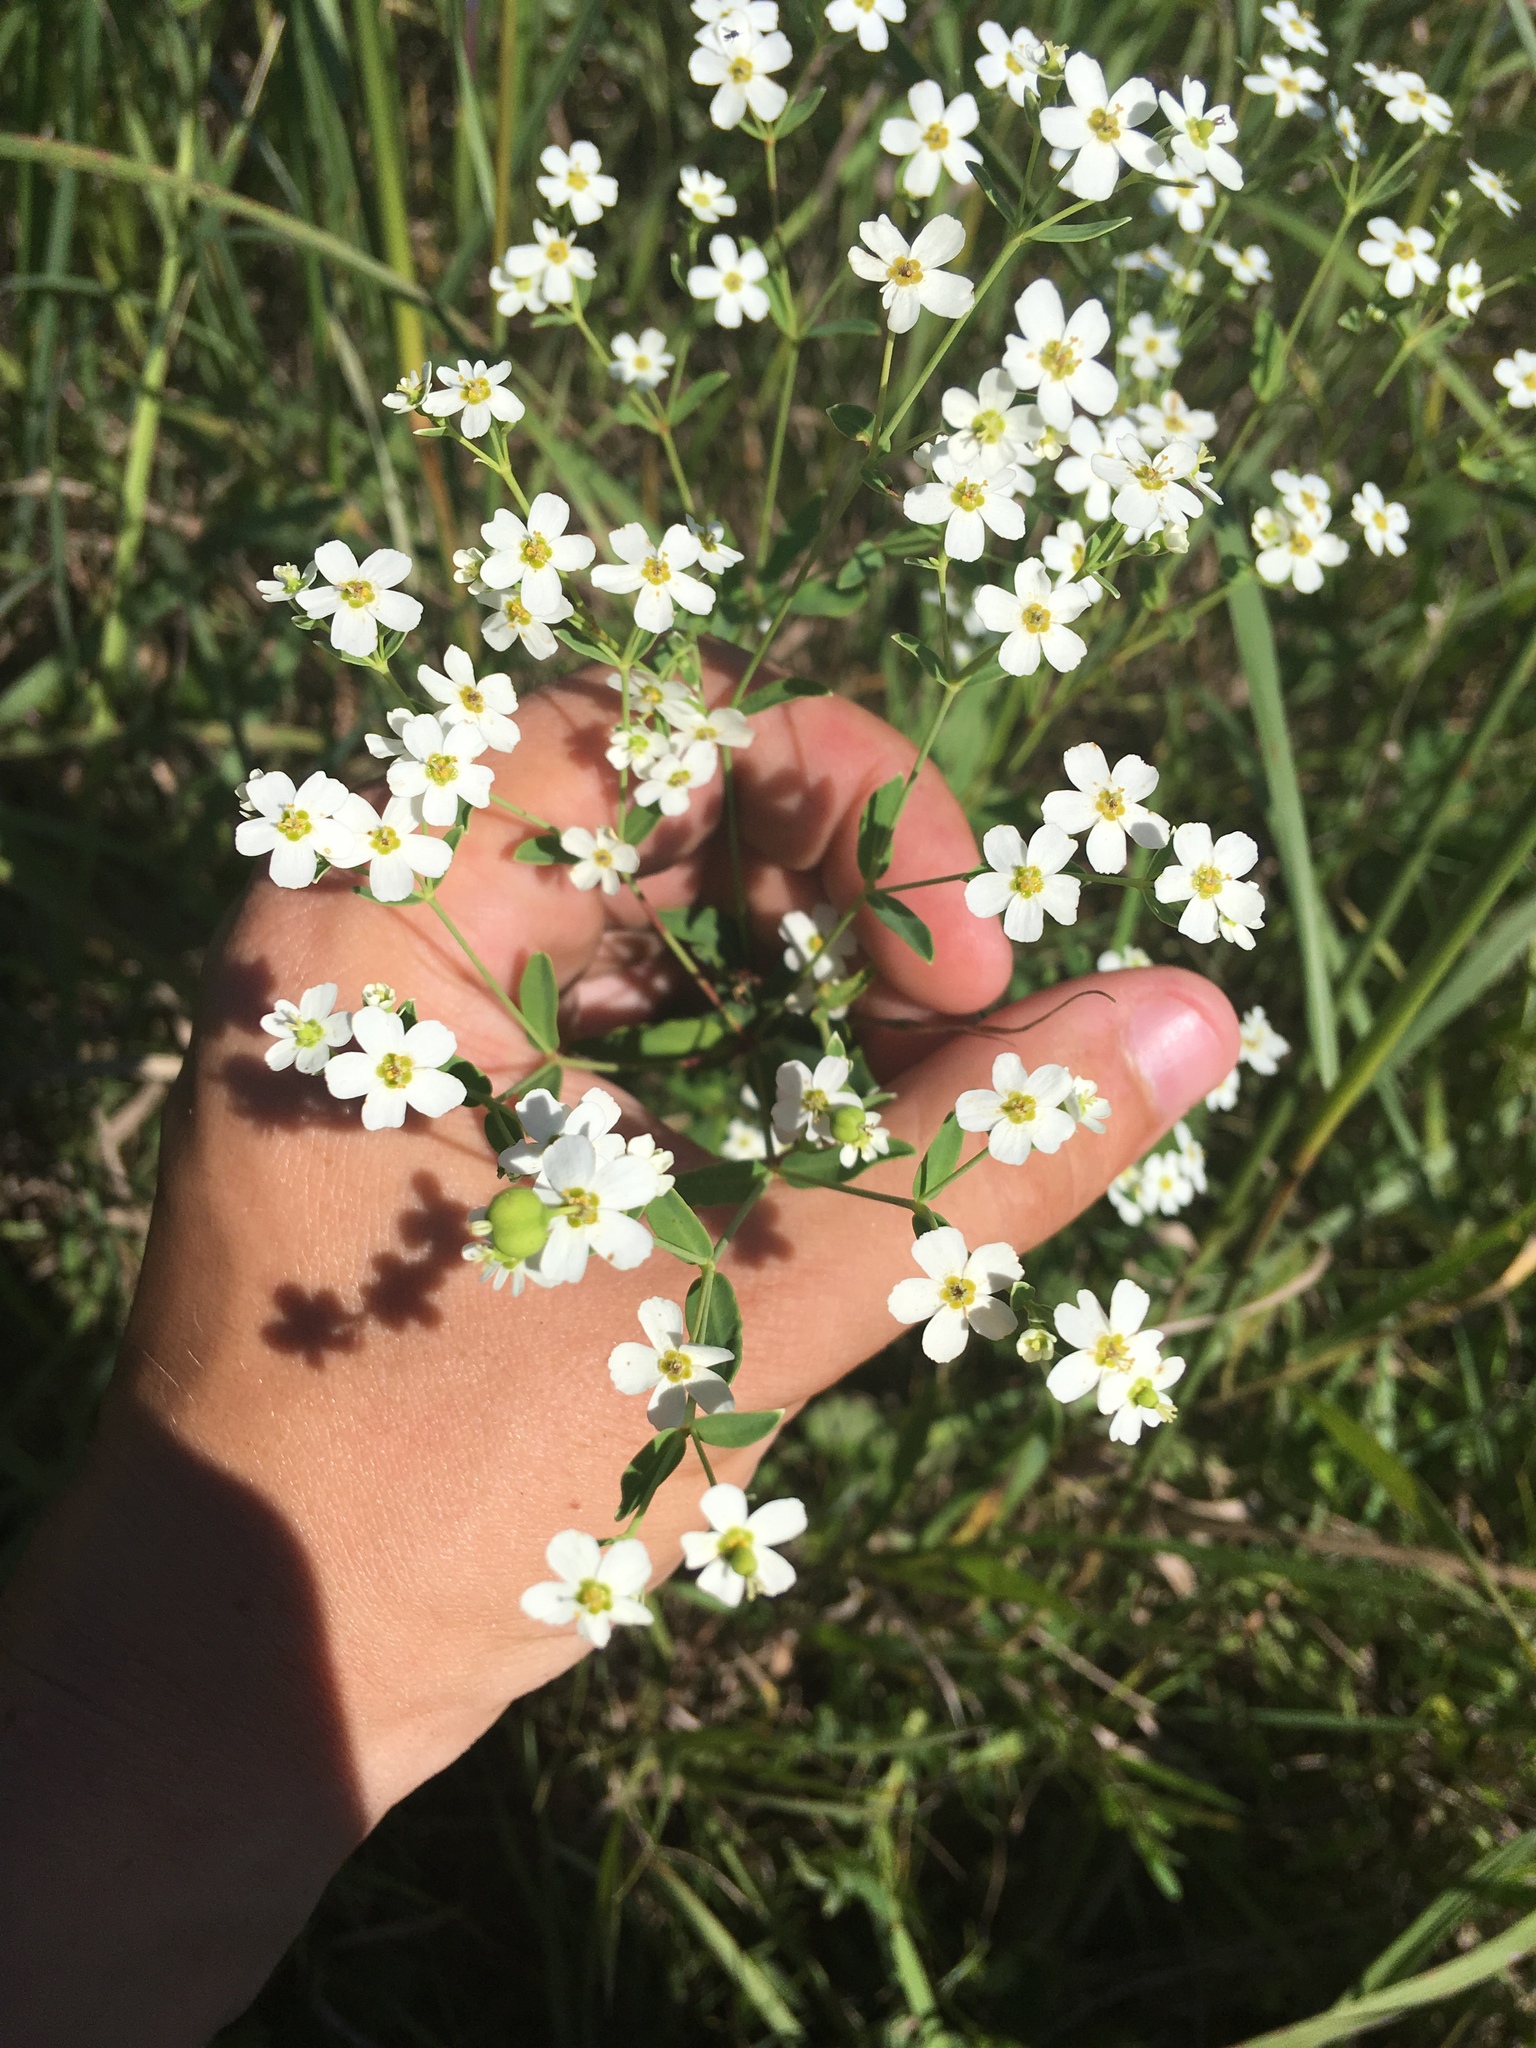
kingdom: Plantae
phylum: Tracheophyta
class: Magnoliopsida
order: Malpighiales
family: Euphorbiaceae
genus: Euphorbia
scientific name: Euphorbia corollata
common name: Flowering spurge
